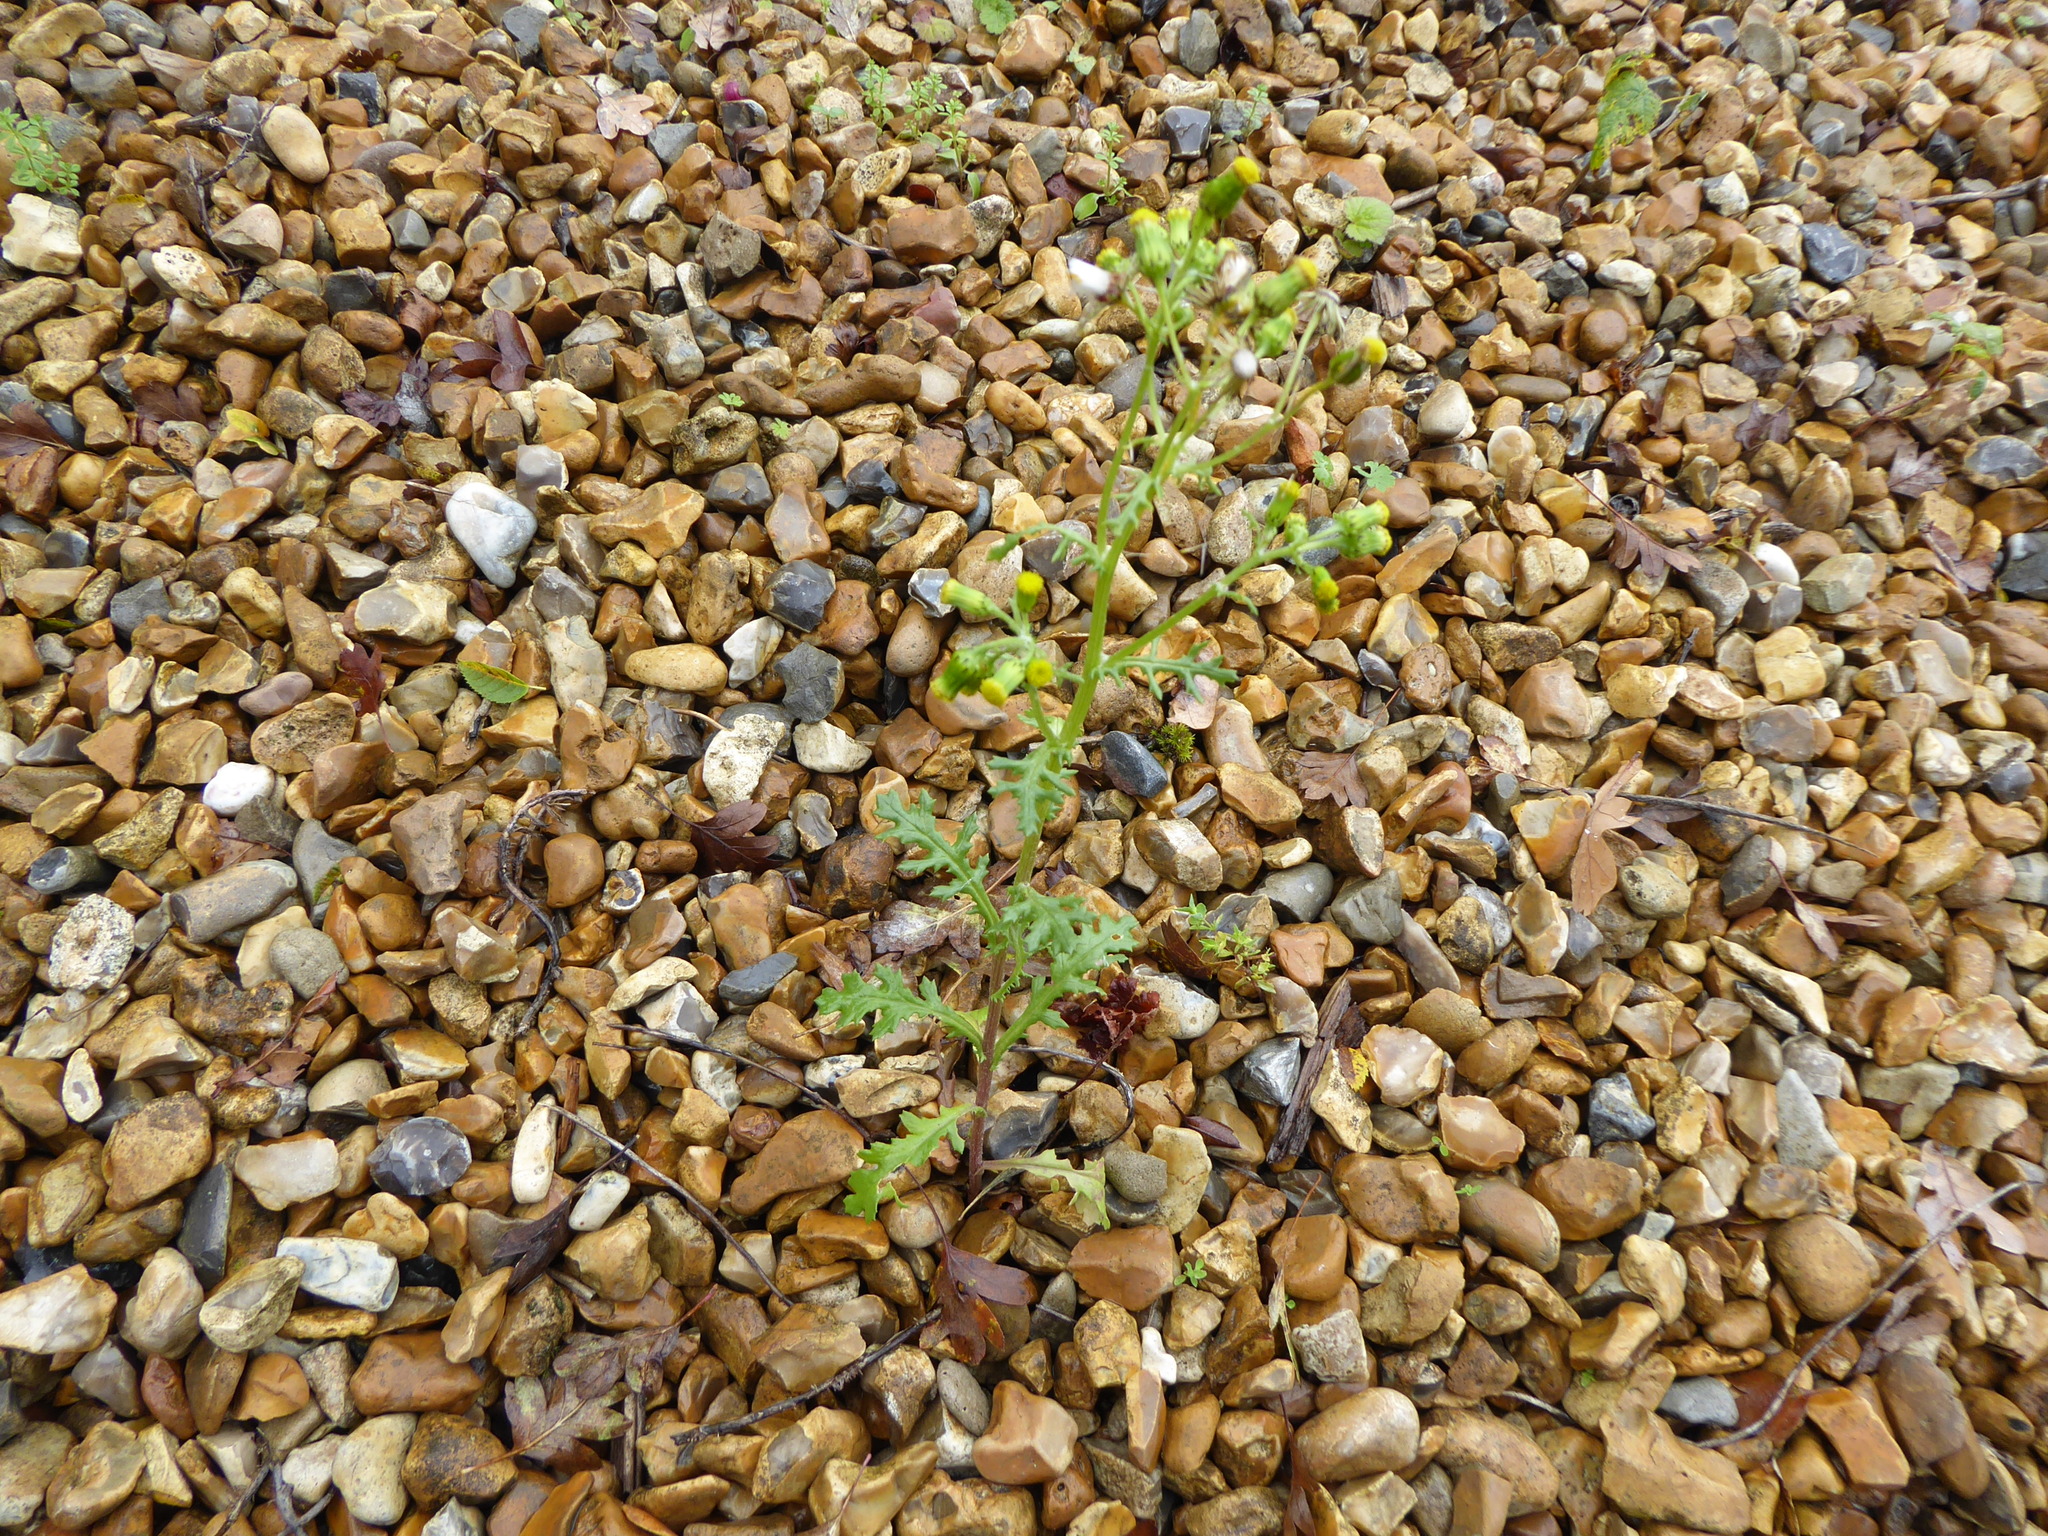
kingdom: Plantae
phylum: Tracheophyta
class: Magnoliopsida
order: Asterales
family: Asteraceae
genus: Senecio
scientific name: Senecio vulgaris
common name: Old-man-in-the-spring
